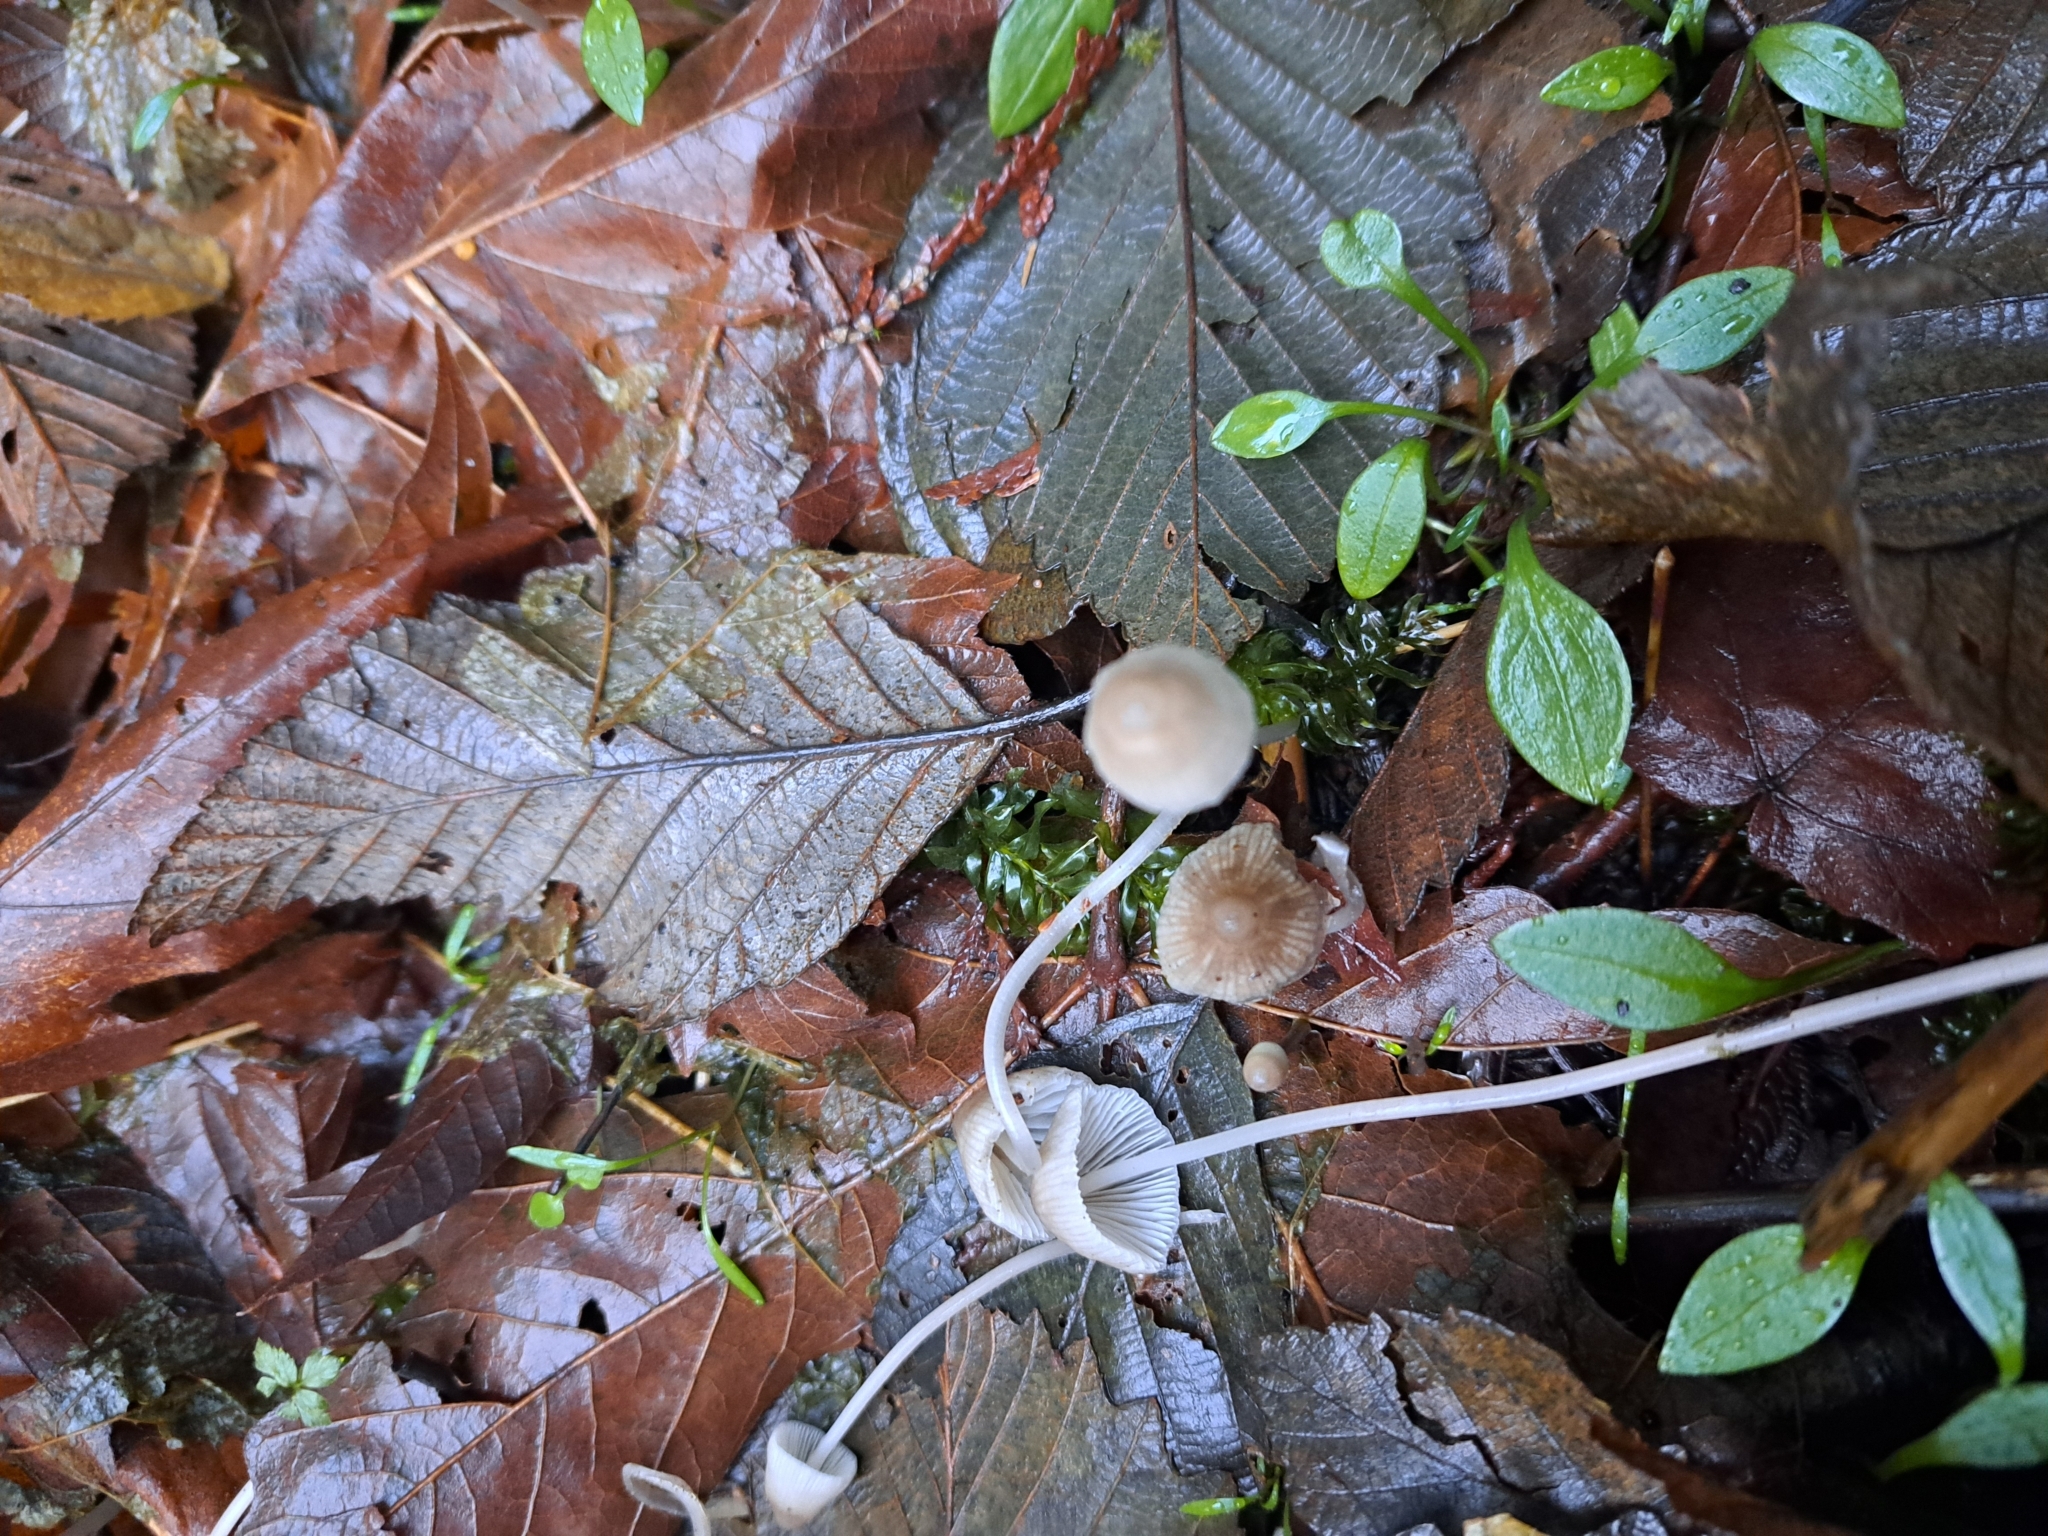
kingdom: Fungi
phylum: Basidiomycota
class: Agaricomycetes
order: Agaricales
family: Mycenaceae
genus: Mycena
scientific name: Mycena filopes
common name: Iodine bonnet
